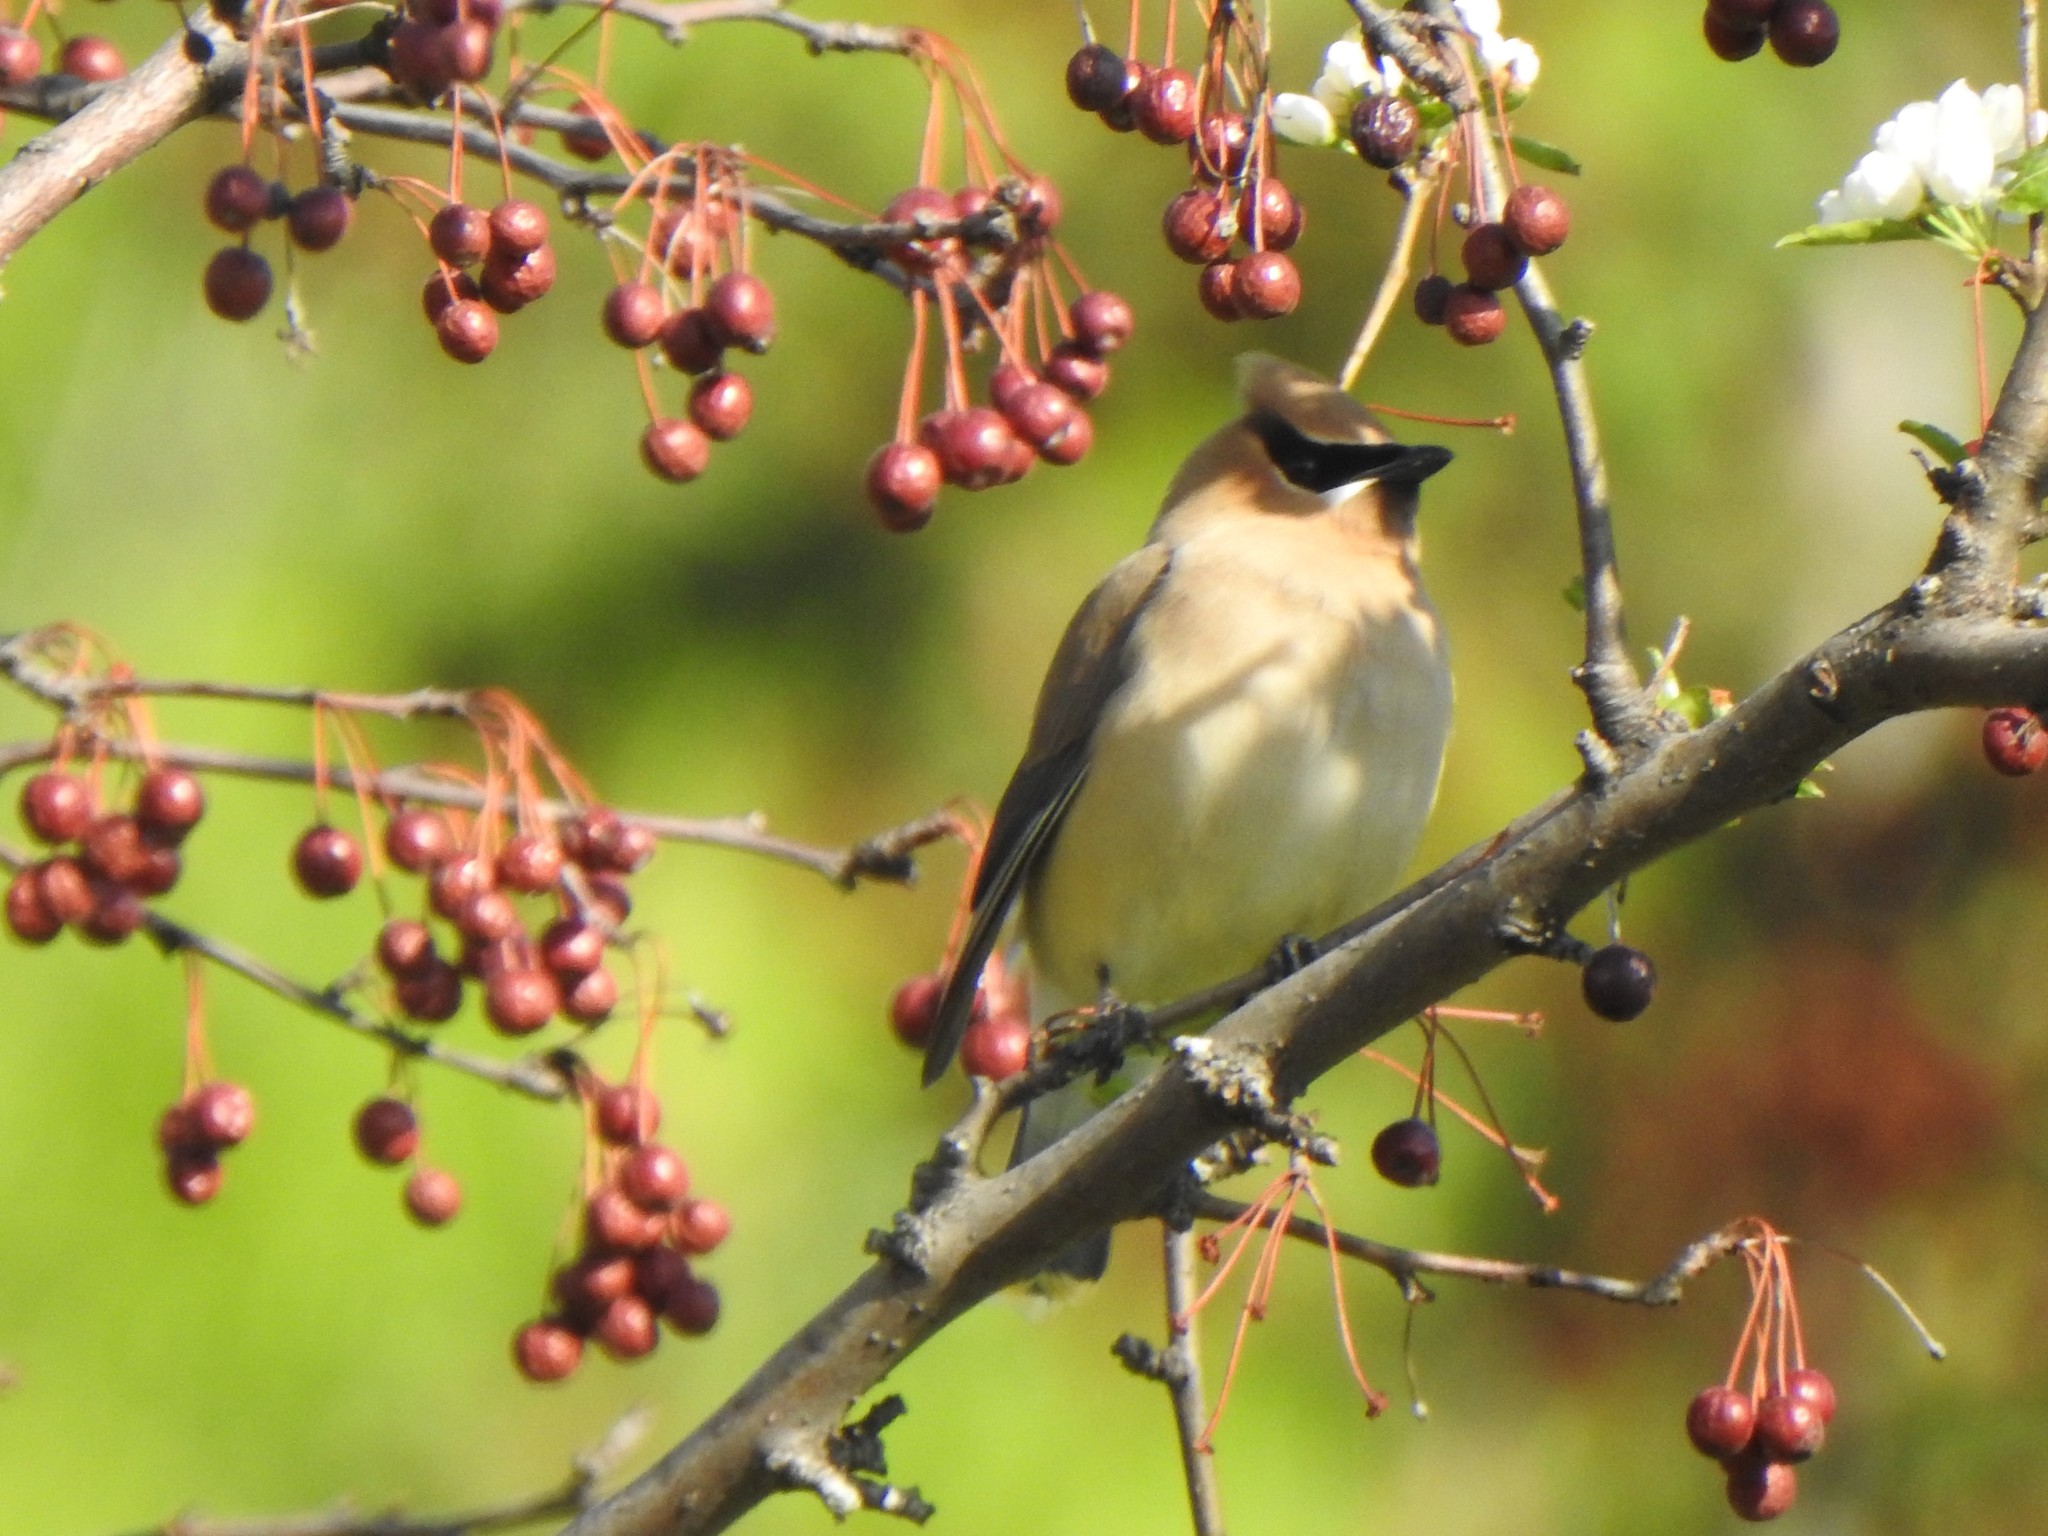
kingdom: Animalia
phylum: Chordata
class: Aves
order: Passeriformes
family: Bombycillidae
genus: Bombycilla
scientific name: Bombycilla cedrorum
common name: Cedar waxwing
